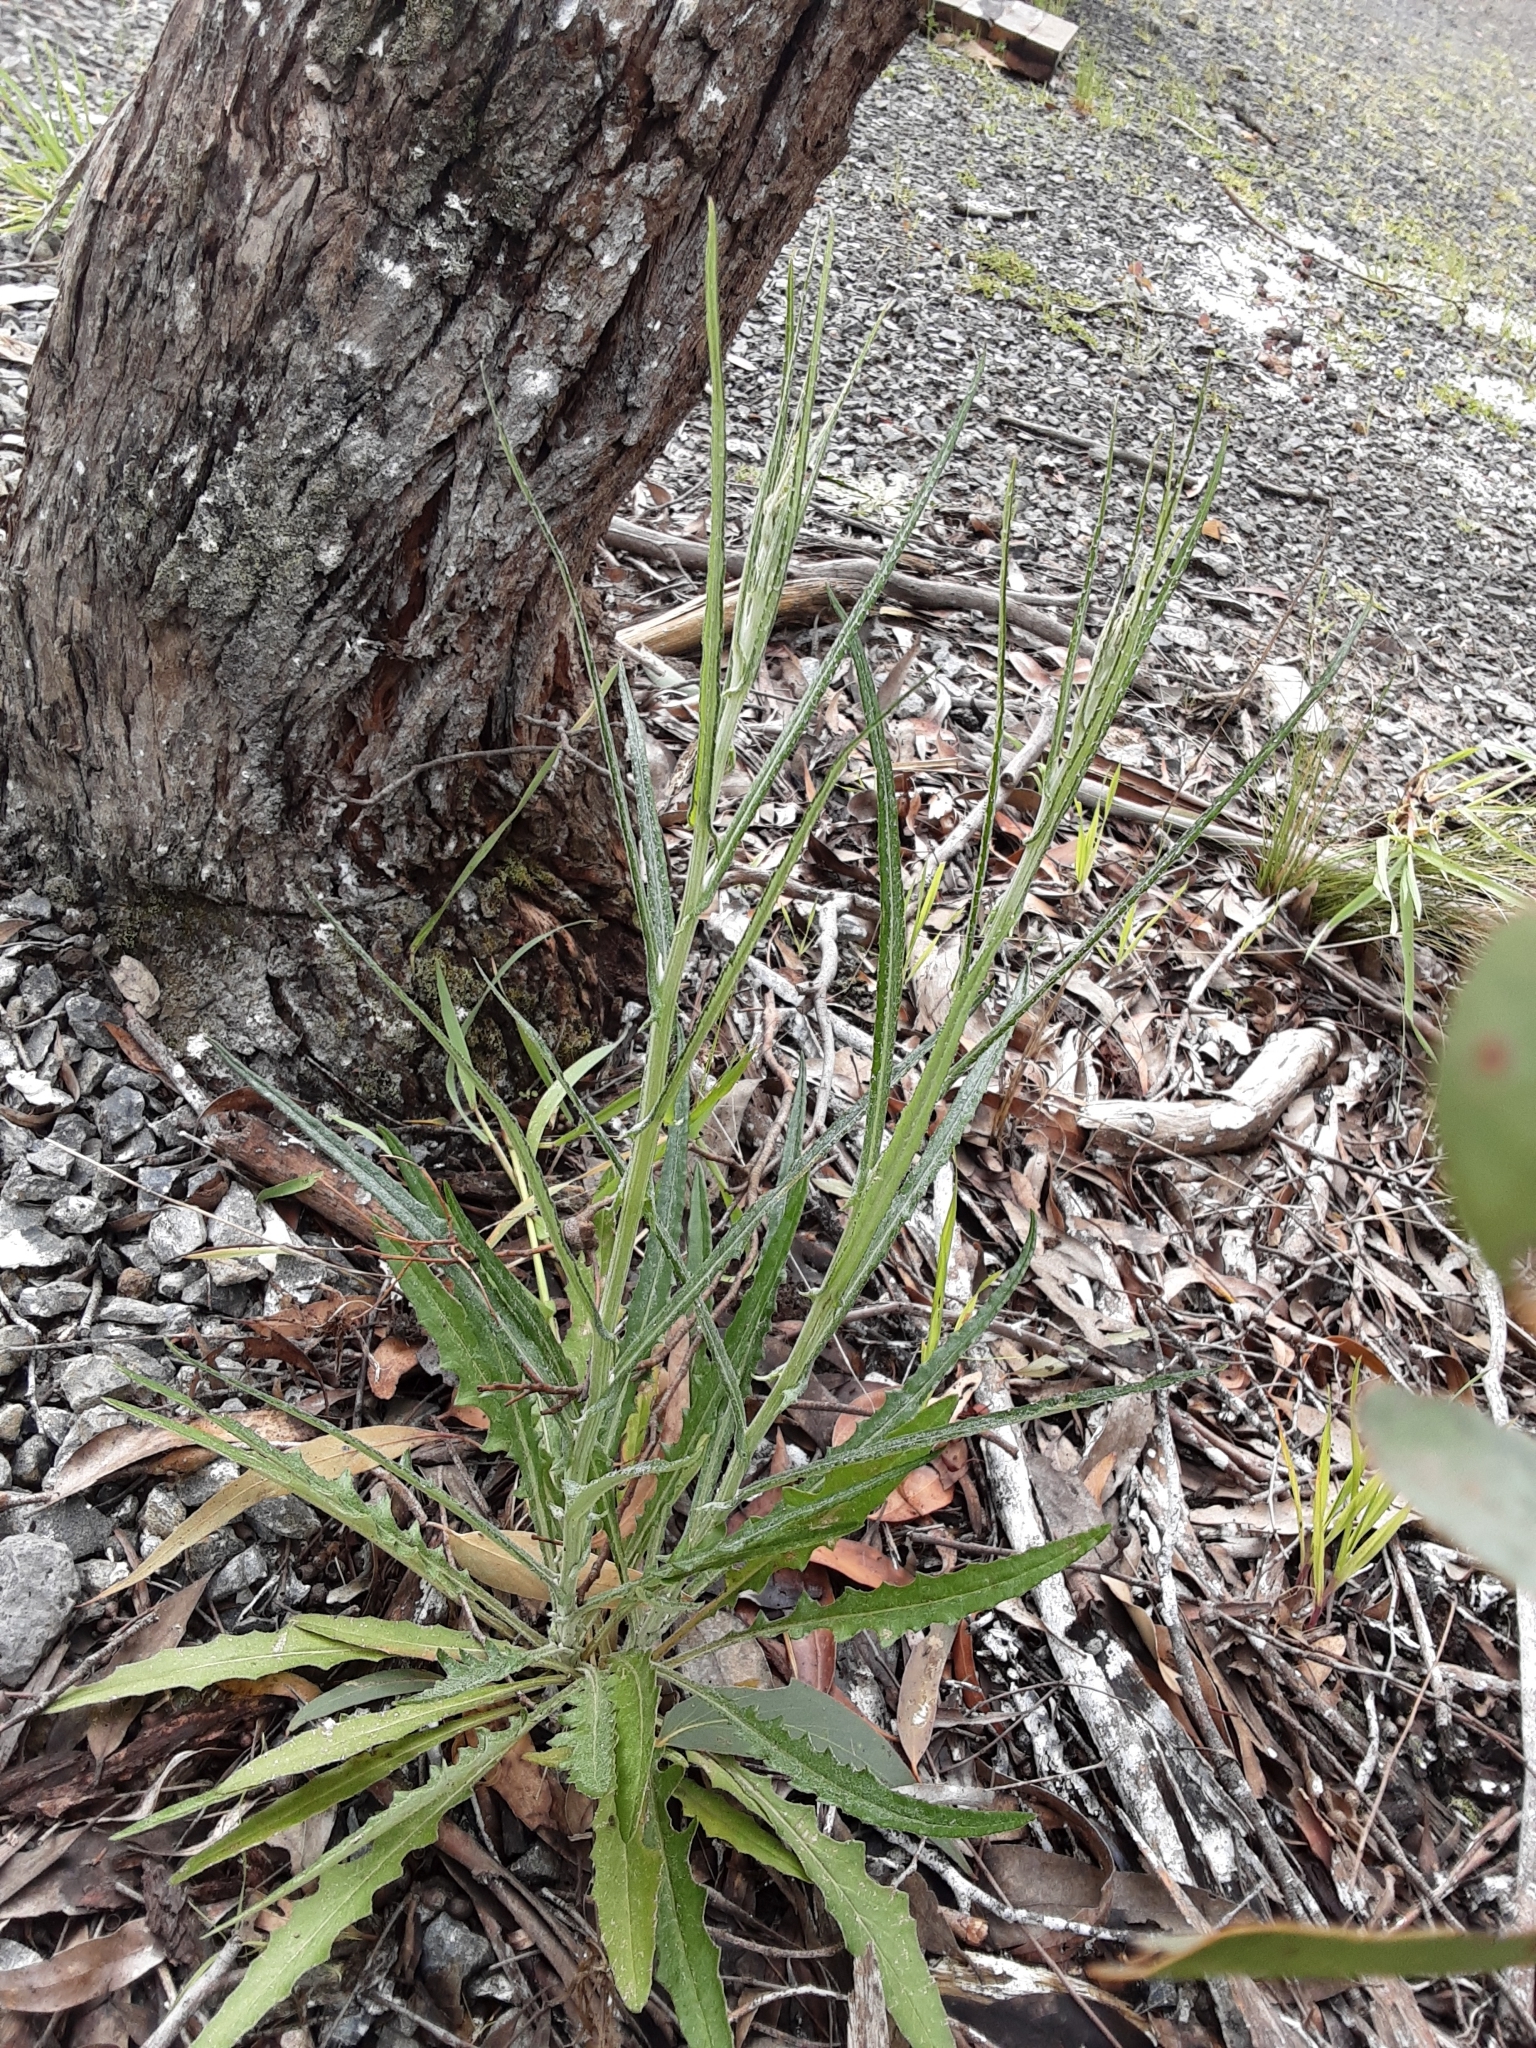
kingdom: Plantae
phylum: Tracheophyta
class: Magnoliopsida
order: Asterales
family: Asteraceae
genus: Senecio
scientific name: Senecio quadridentatus
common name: Cotton fireweed
